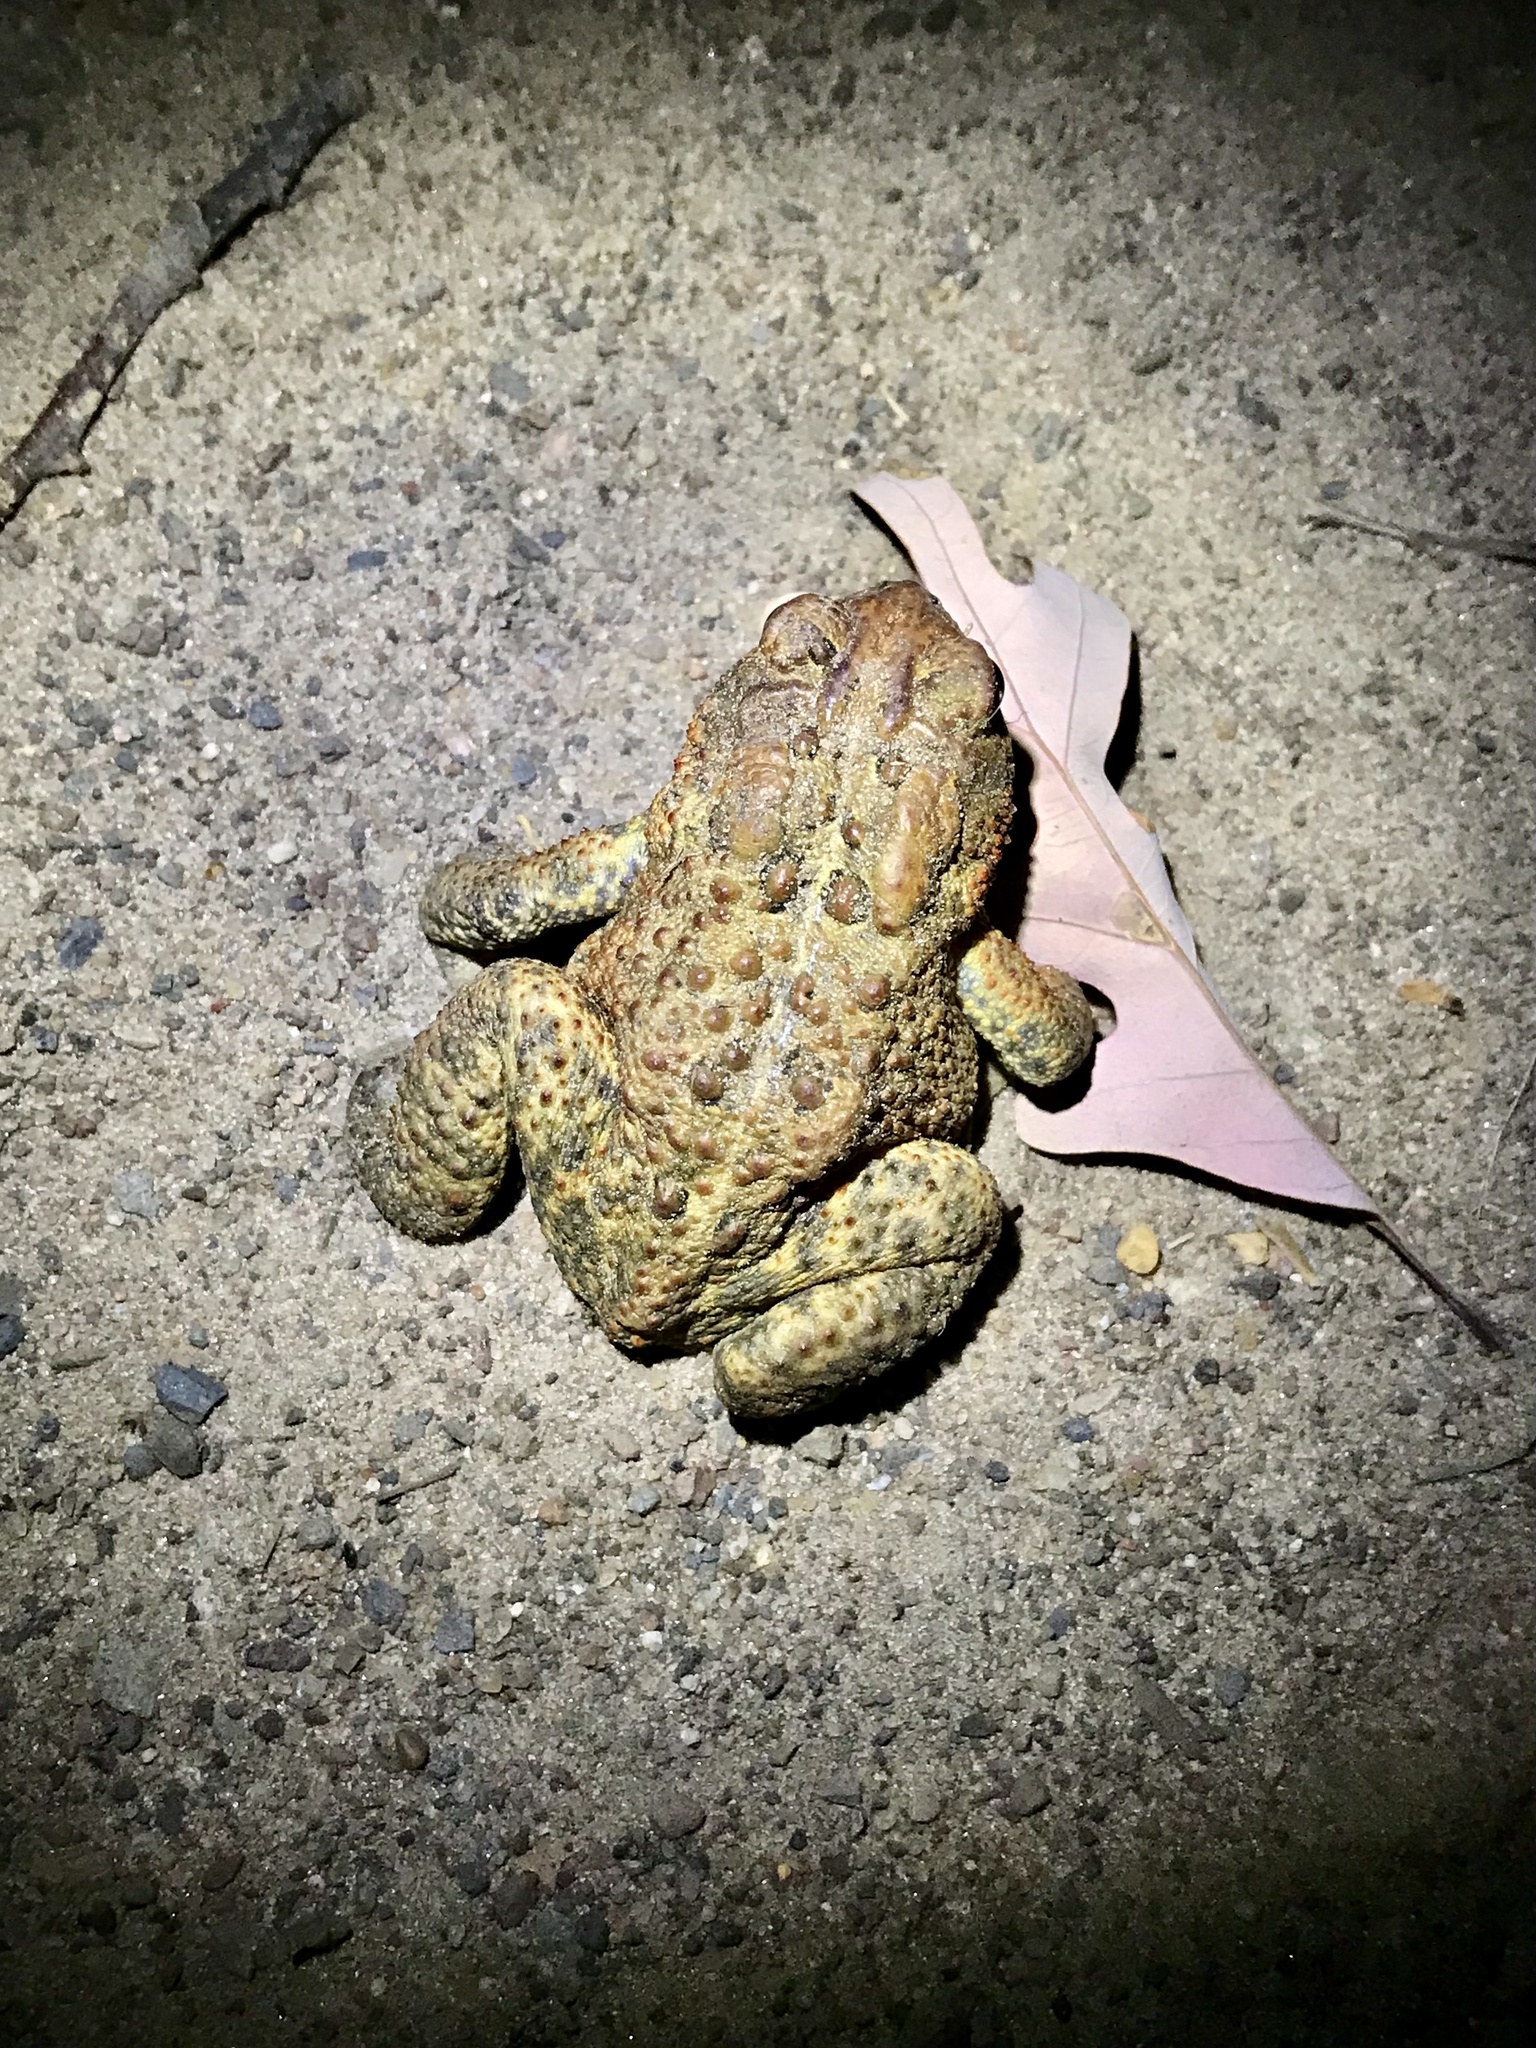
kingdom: Animalia
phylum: Chordata
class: Amphibia
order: Anura
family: Bufonidae
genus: Anaxyrus
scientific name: Anaxyrus americanus
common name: American toad
